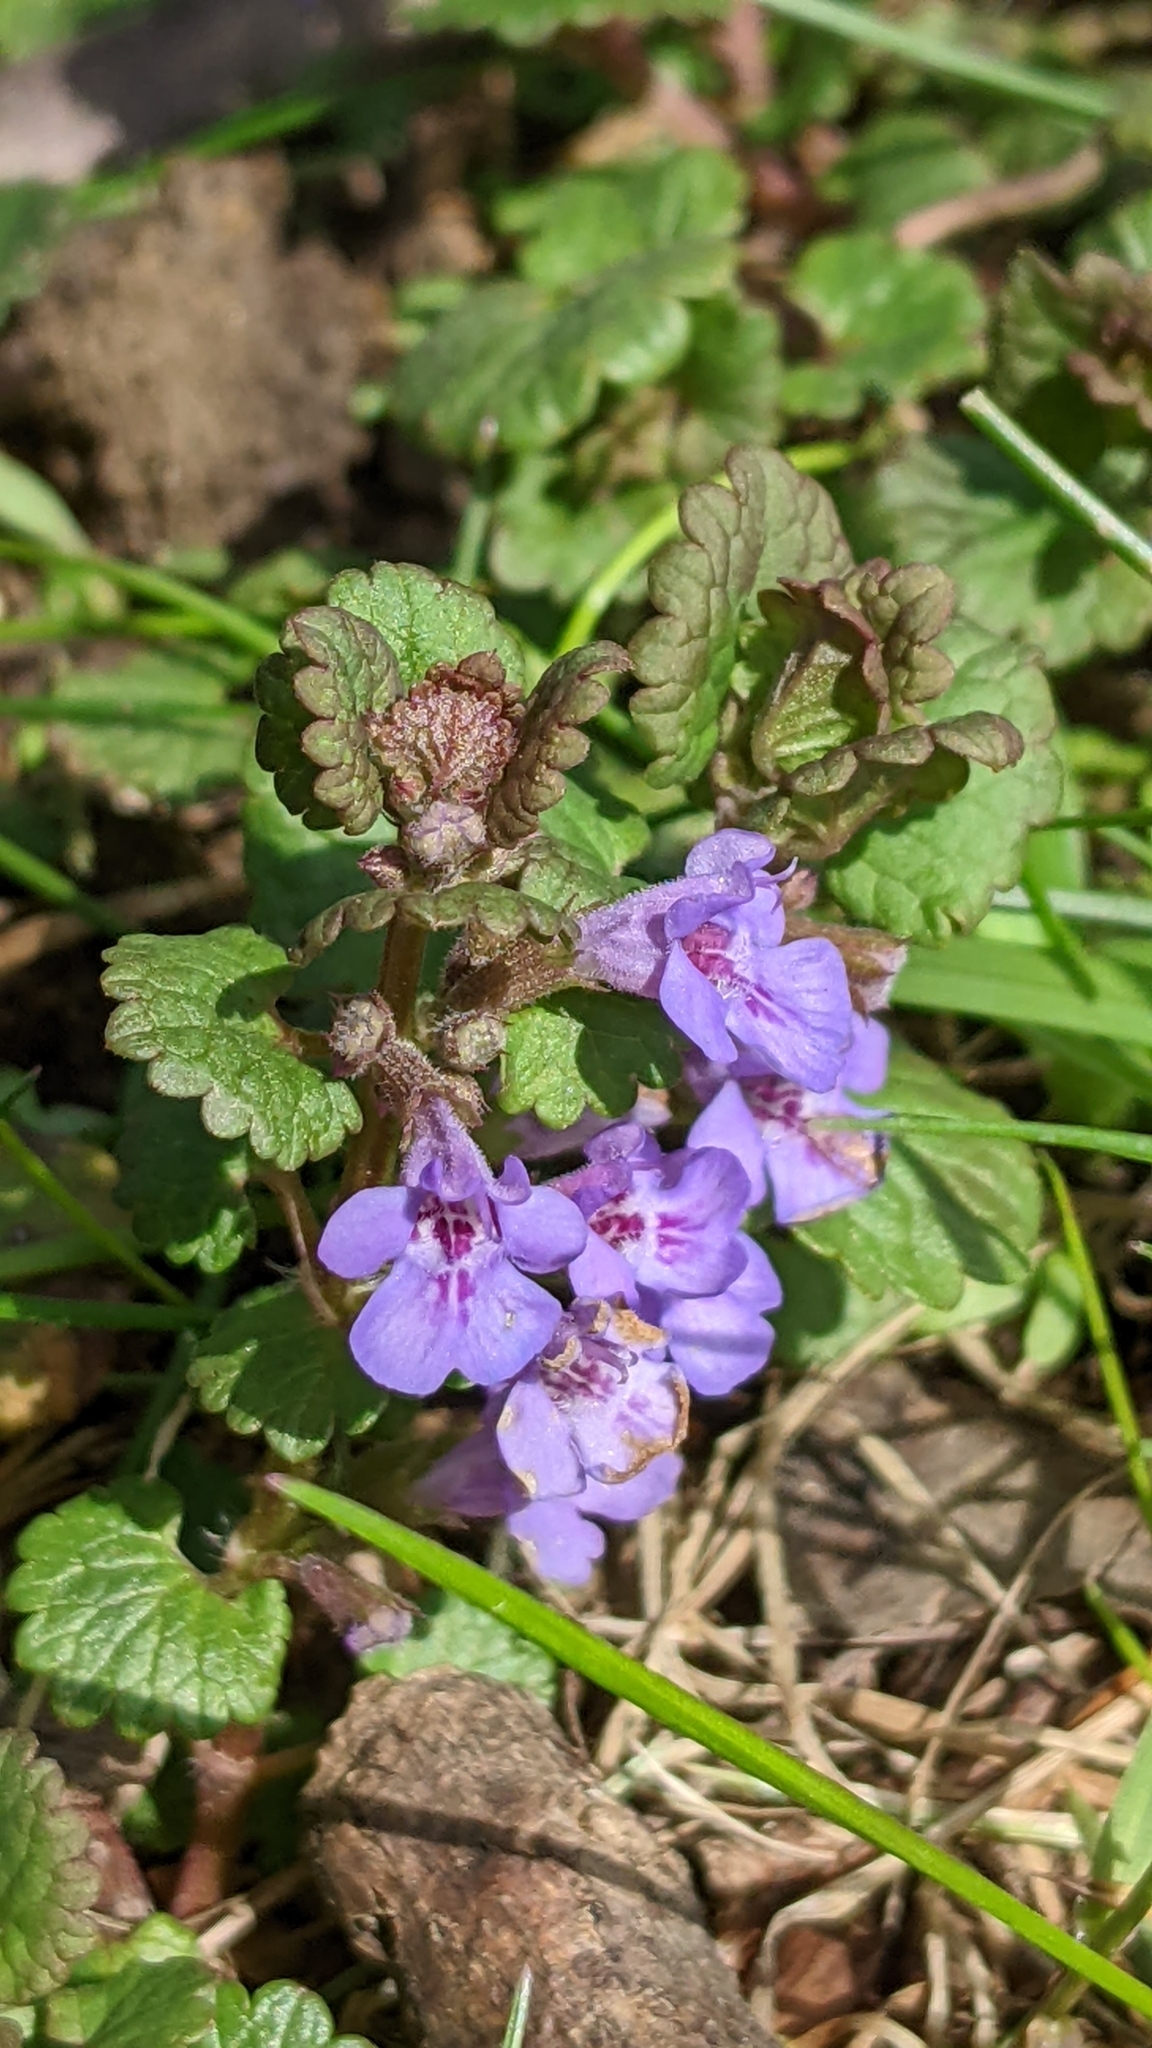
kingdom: Plantae
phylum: Tracheophyta
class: Magnoliopsida
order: Lamiales
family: Lamiaceae
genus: Glechoma
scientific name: Glechoma hederacea
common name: Ground ivy
